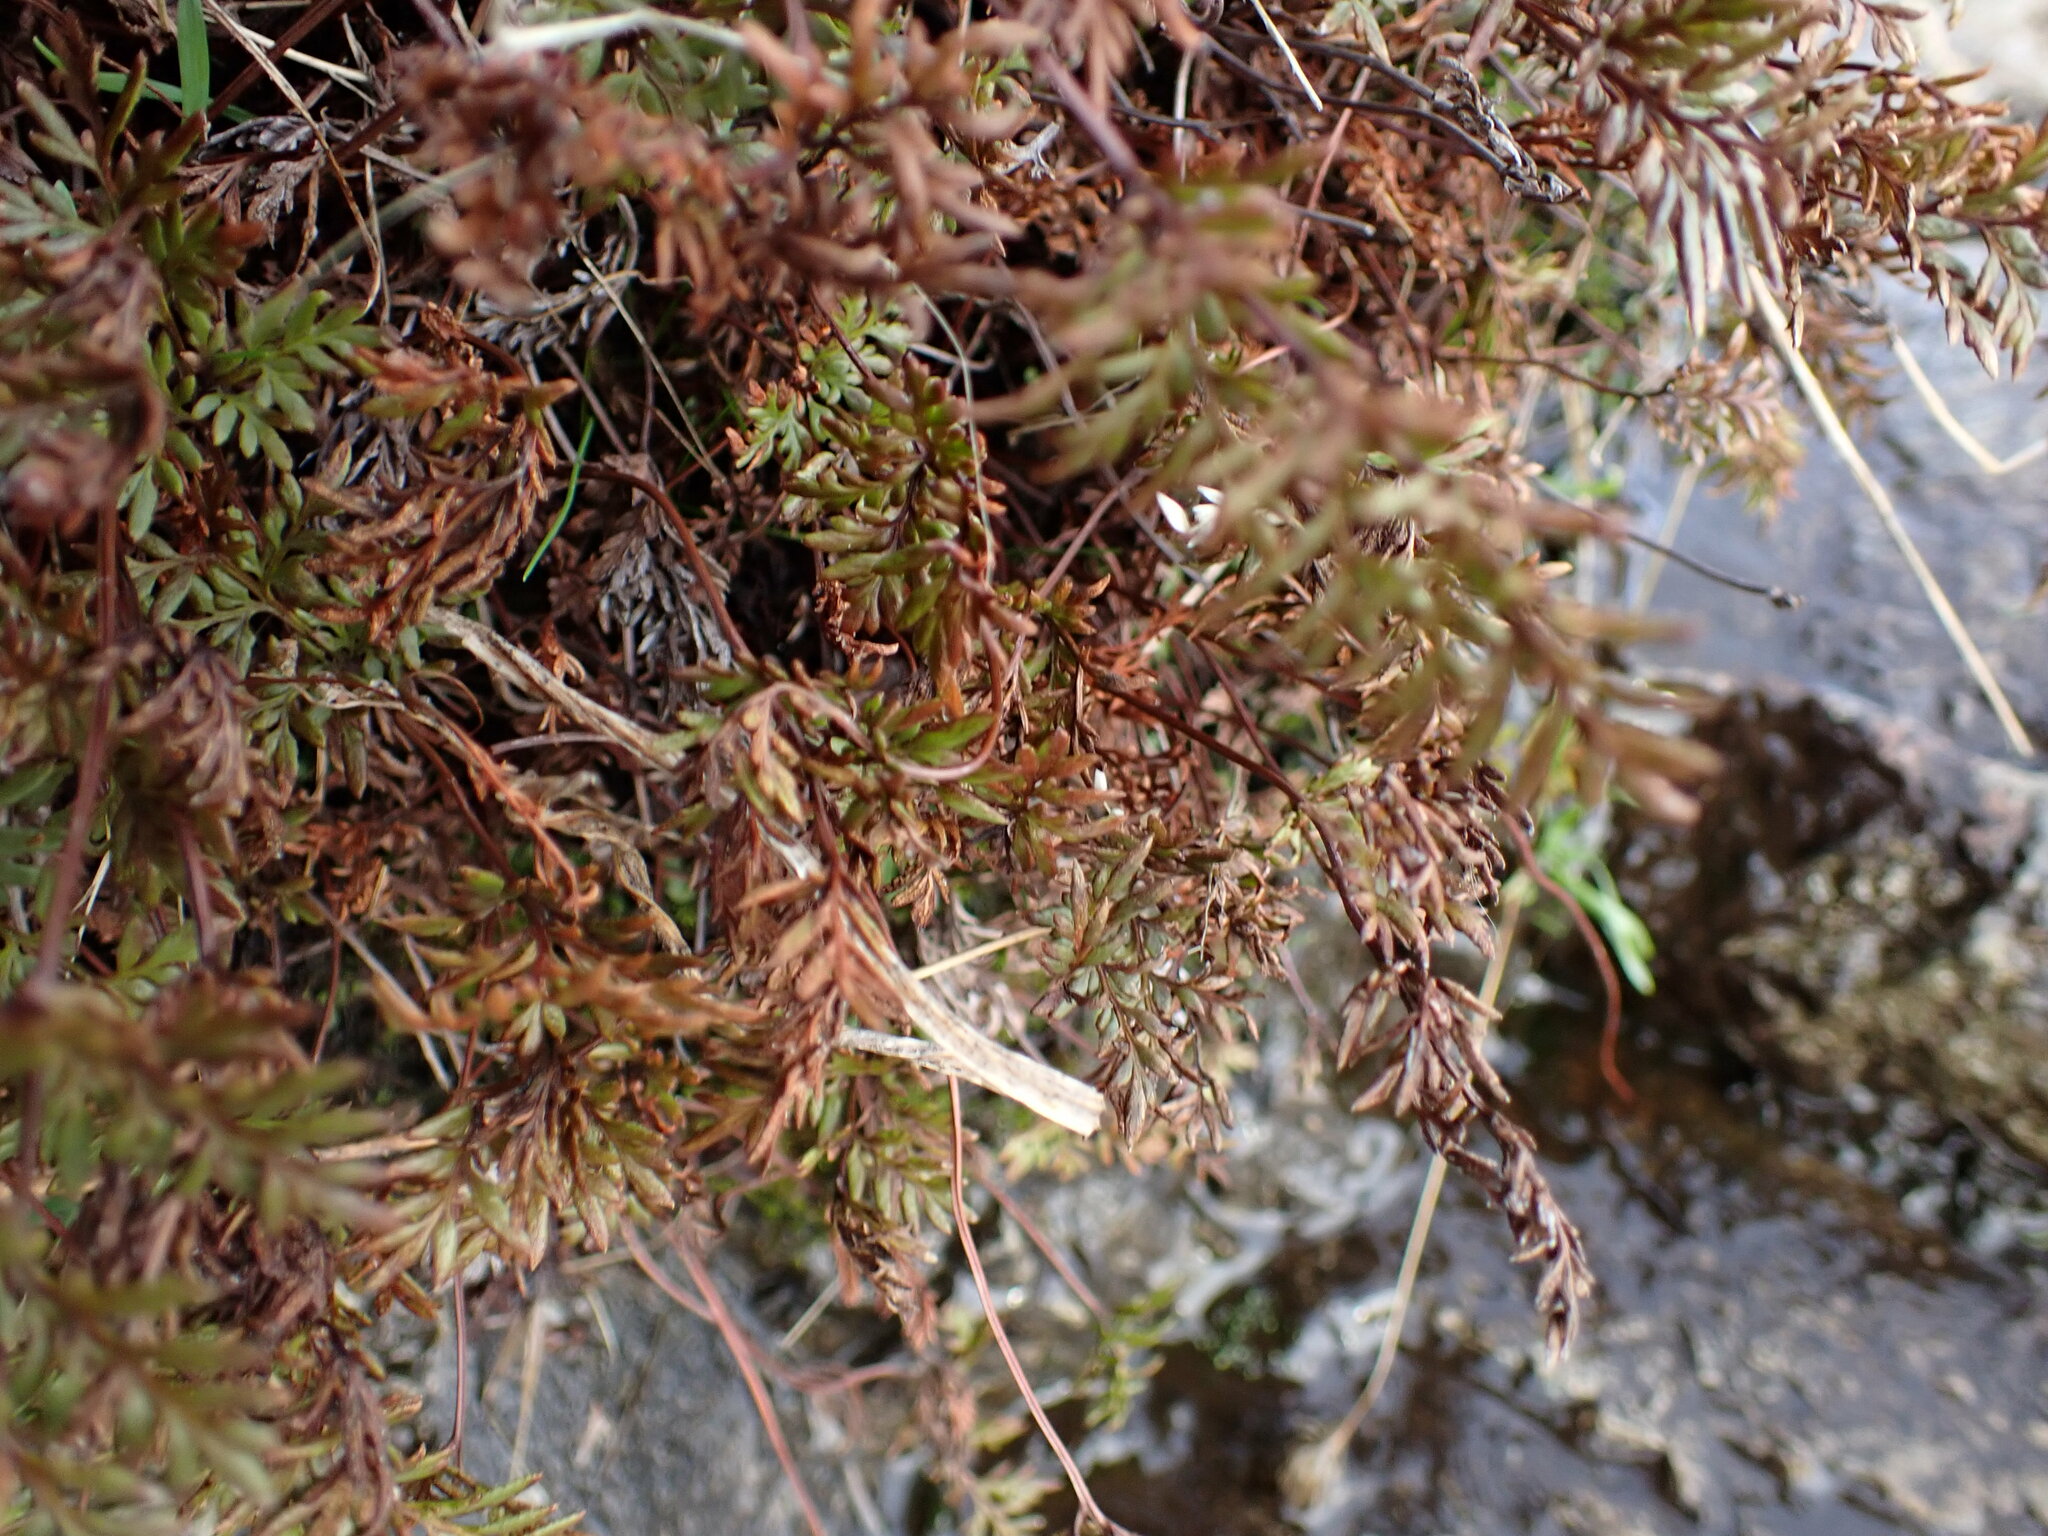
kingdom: Plantae
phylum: Tracheophyta
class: Polypodiopsida
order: Polypodiales
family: Pteridaceae
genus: Aspidotis
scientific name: Aspidotis densa
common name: Indian's dream
